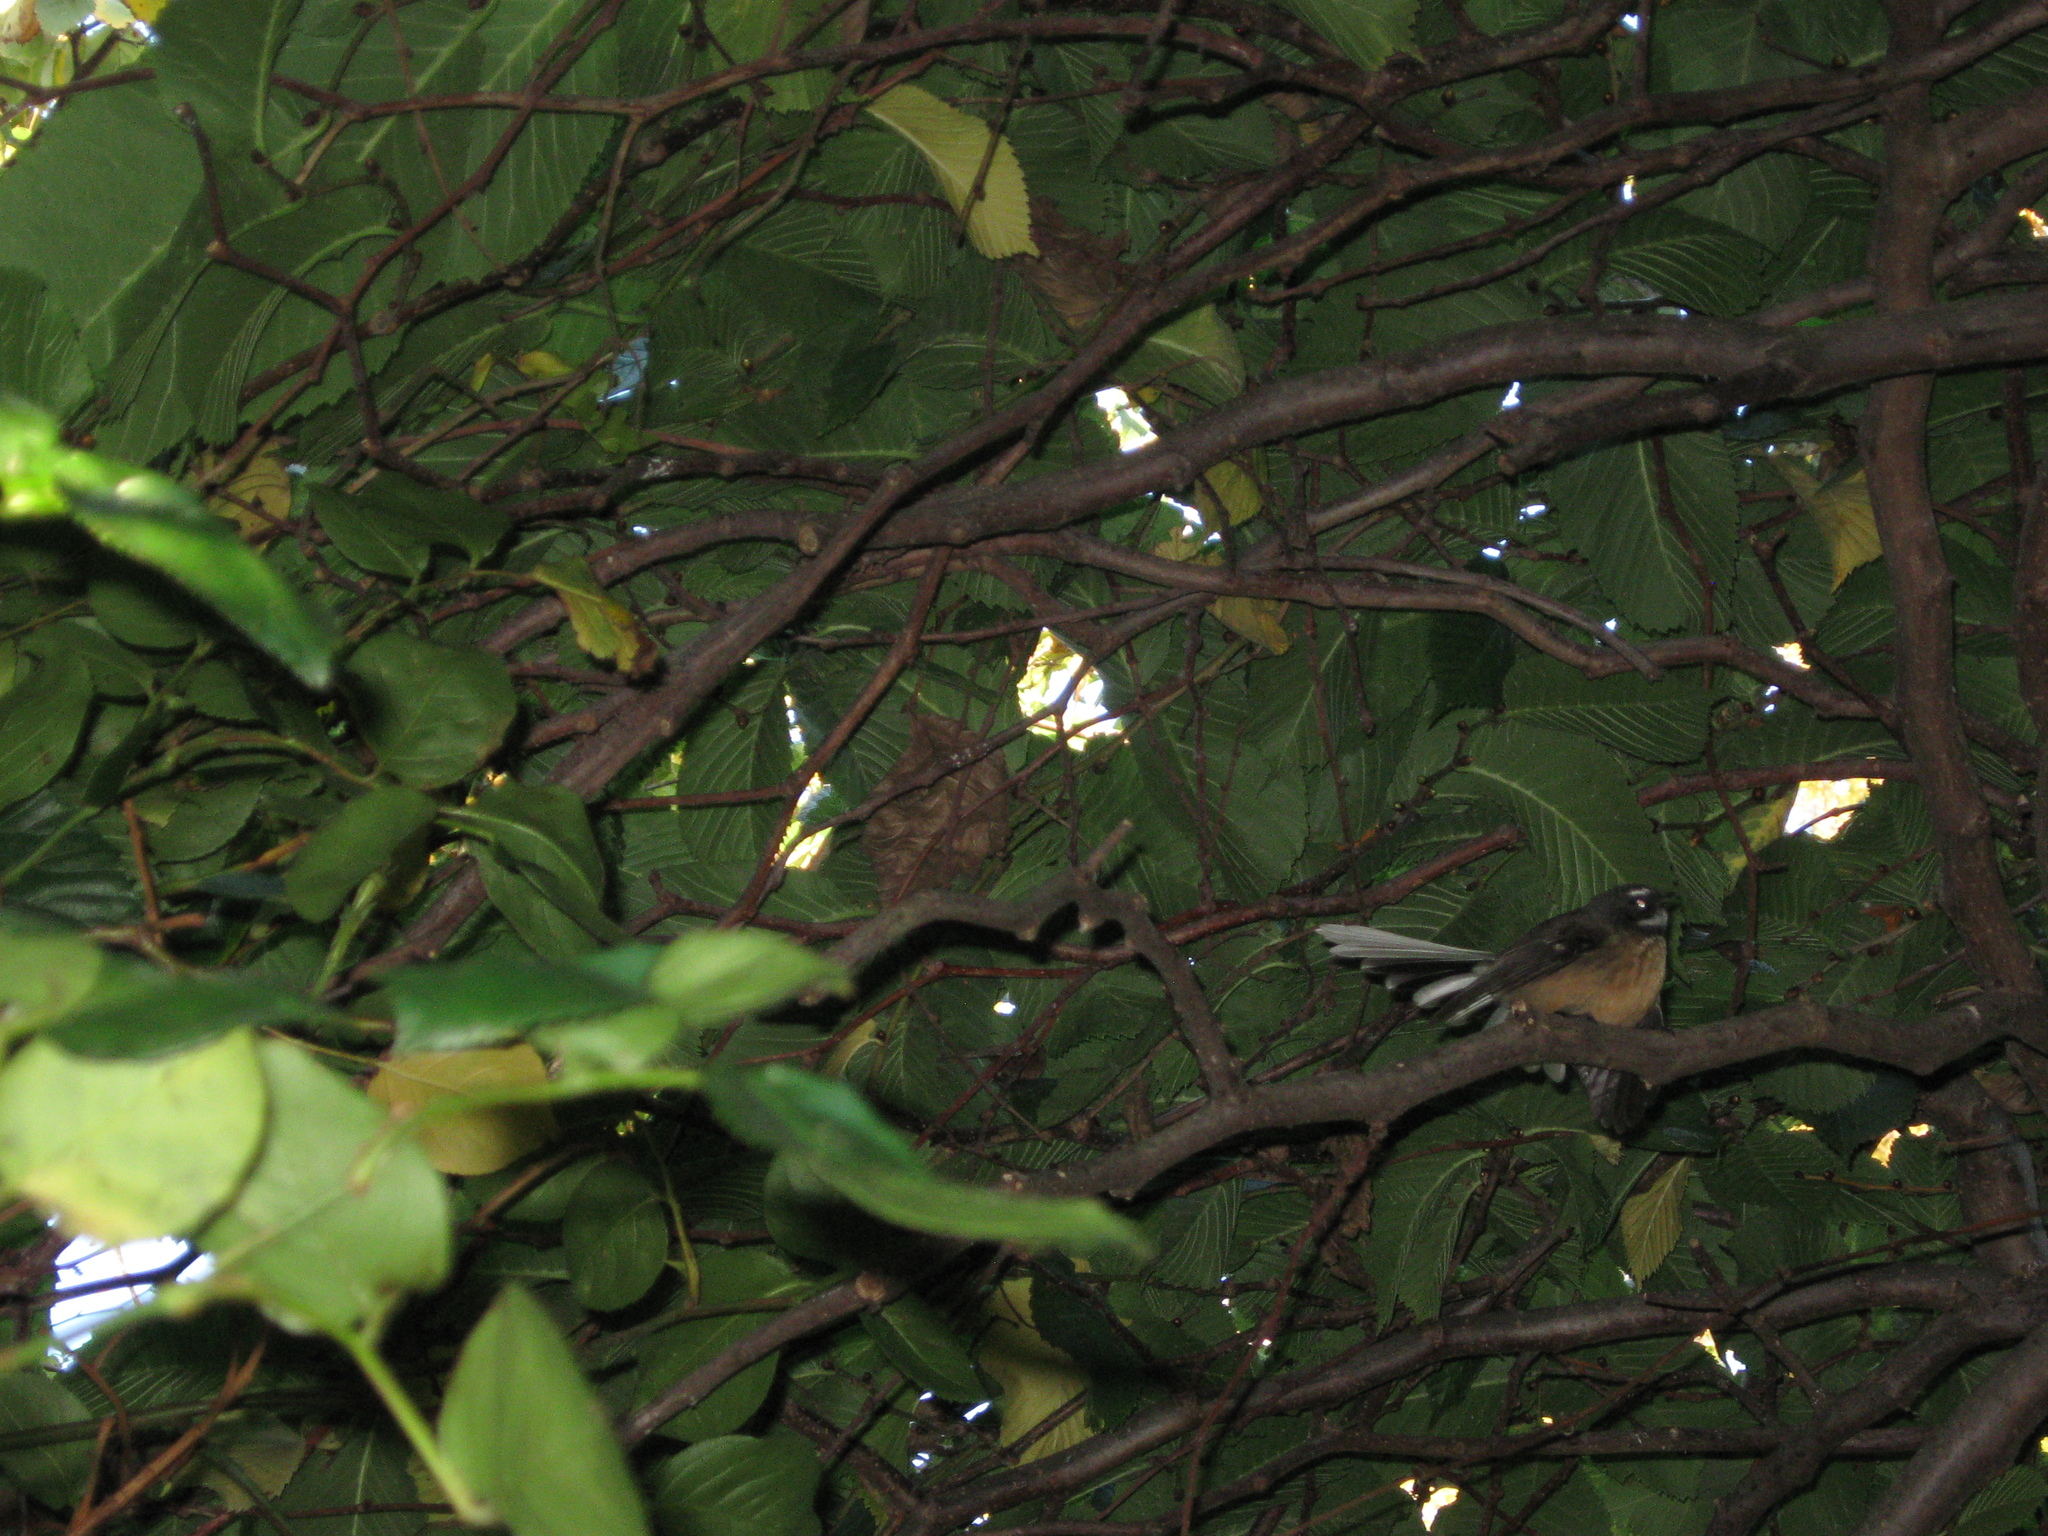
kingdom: Animalia
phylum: Chordata
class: Aves
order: Passeriformes
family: Rhipiduridae
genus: Rhipidura
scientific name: Rhipidura fuliginosa
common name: New zealand fantail
